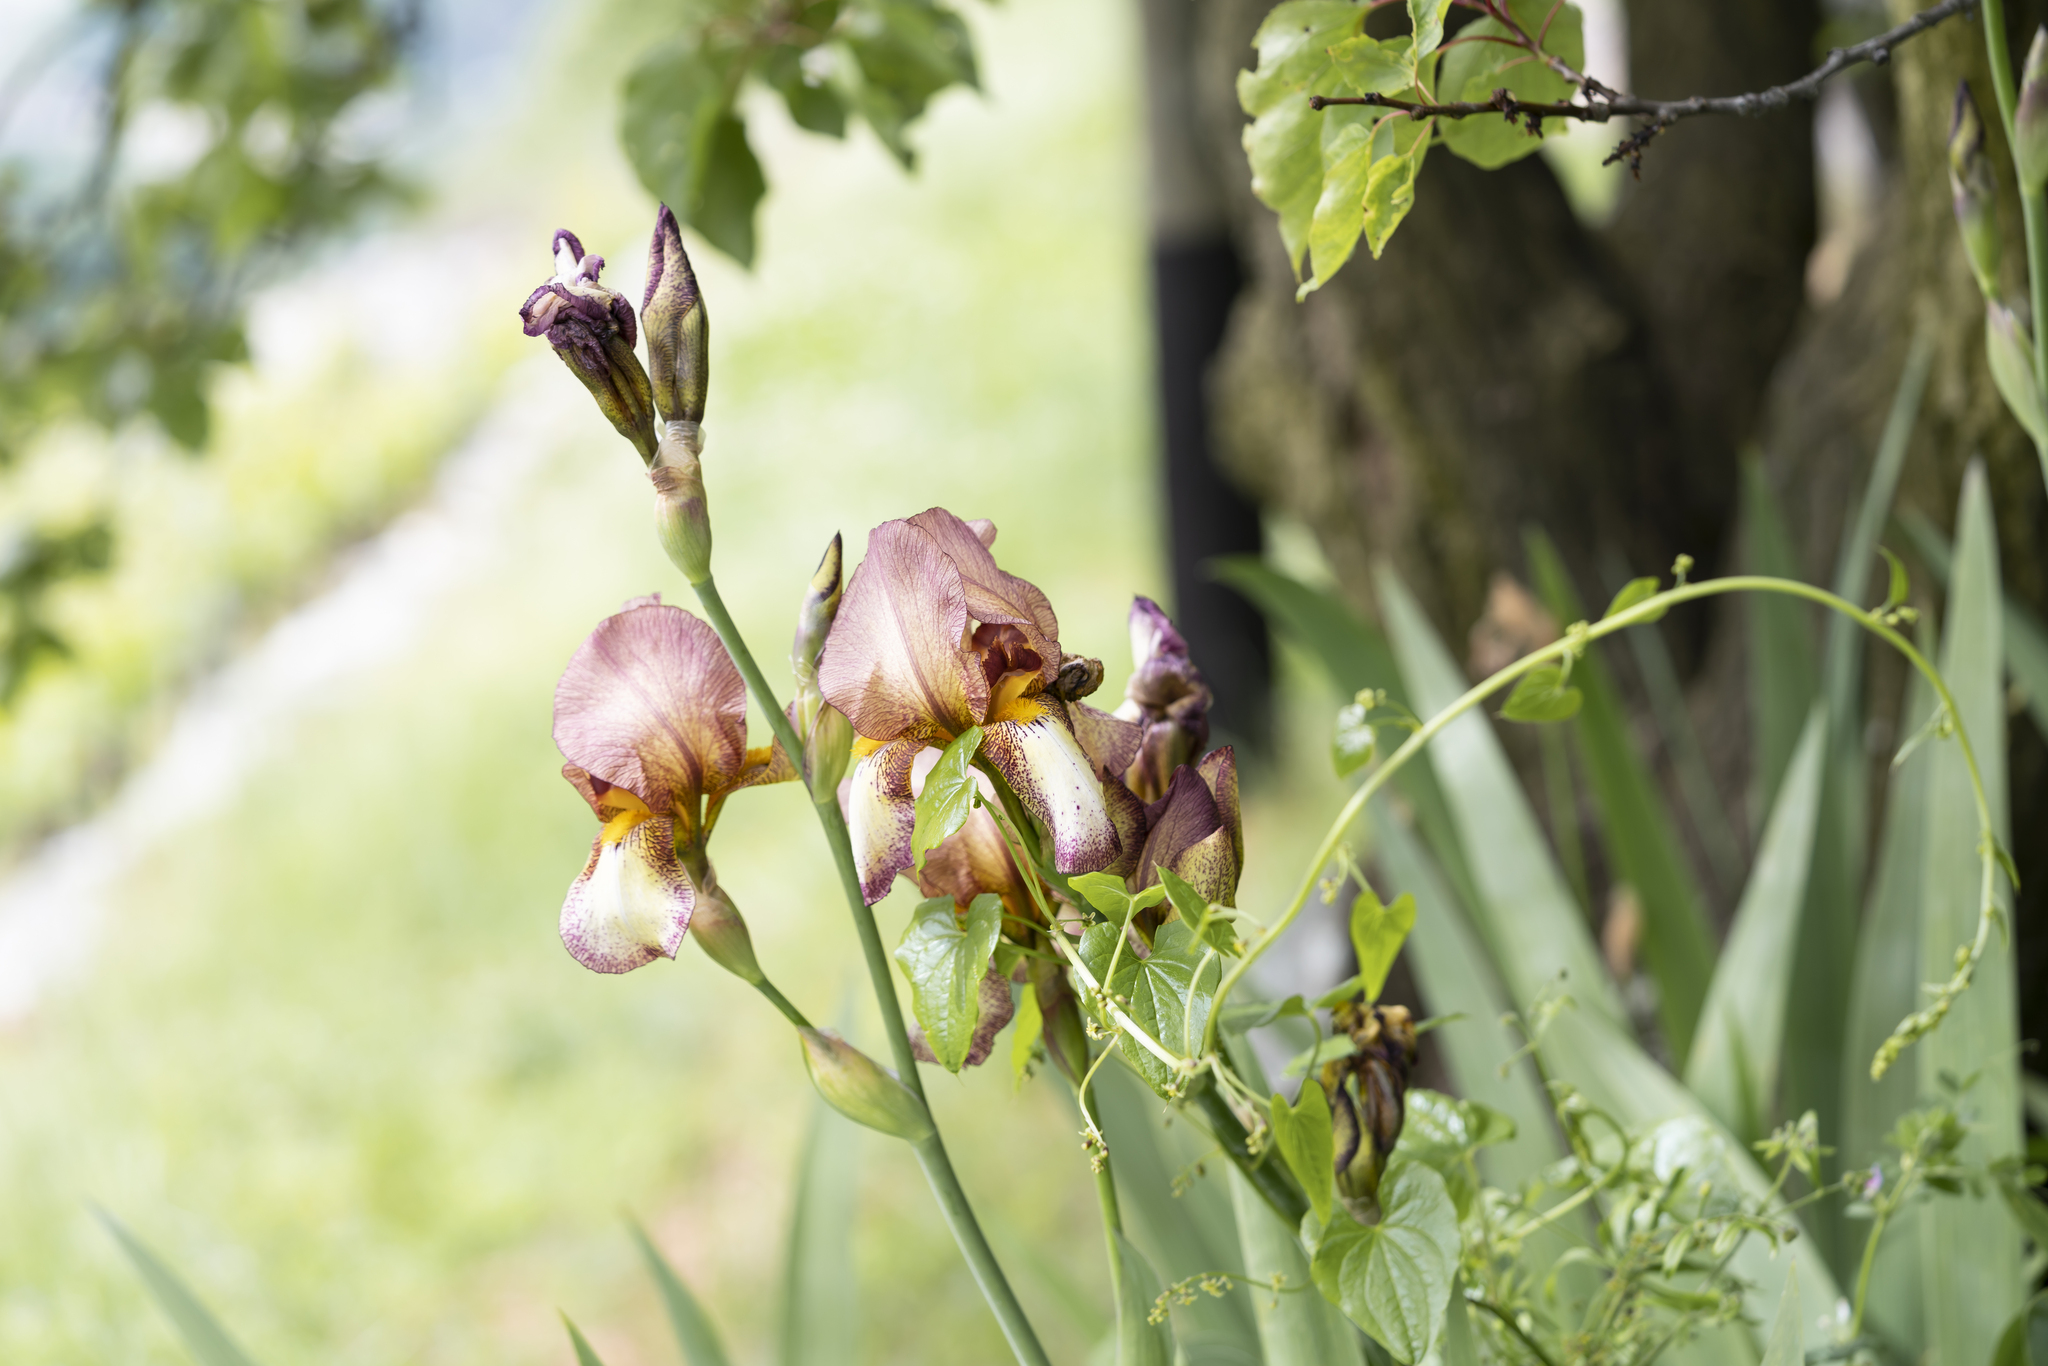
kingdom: Plantae
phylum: Tracheophyta
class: Liliopsida
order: Asparagales
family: Iridaceae
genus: Iris
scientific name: Iris hybrida
